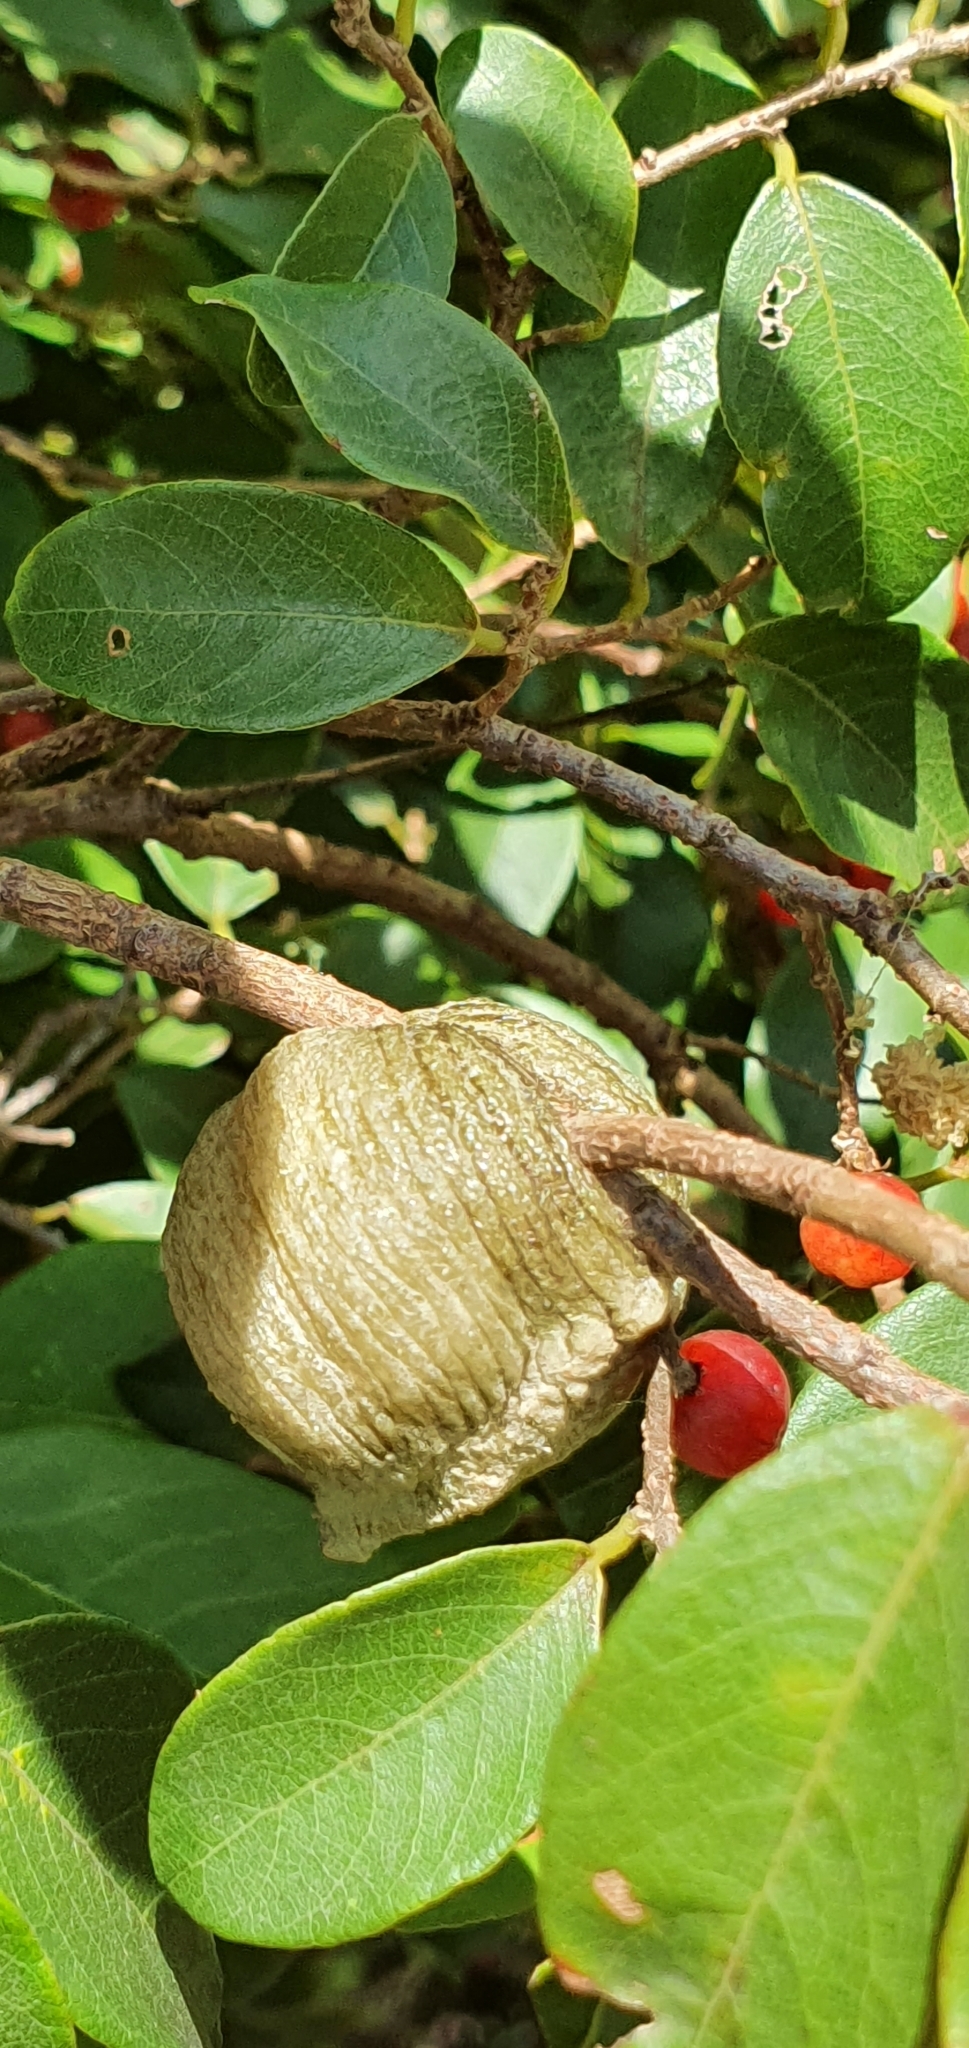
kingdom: Animalia
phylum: Arthropoda
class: Insecta
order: Mantodea
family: Mantidae
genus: Archimantis
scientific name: Archimantis latistyla
